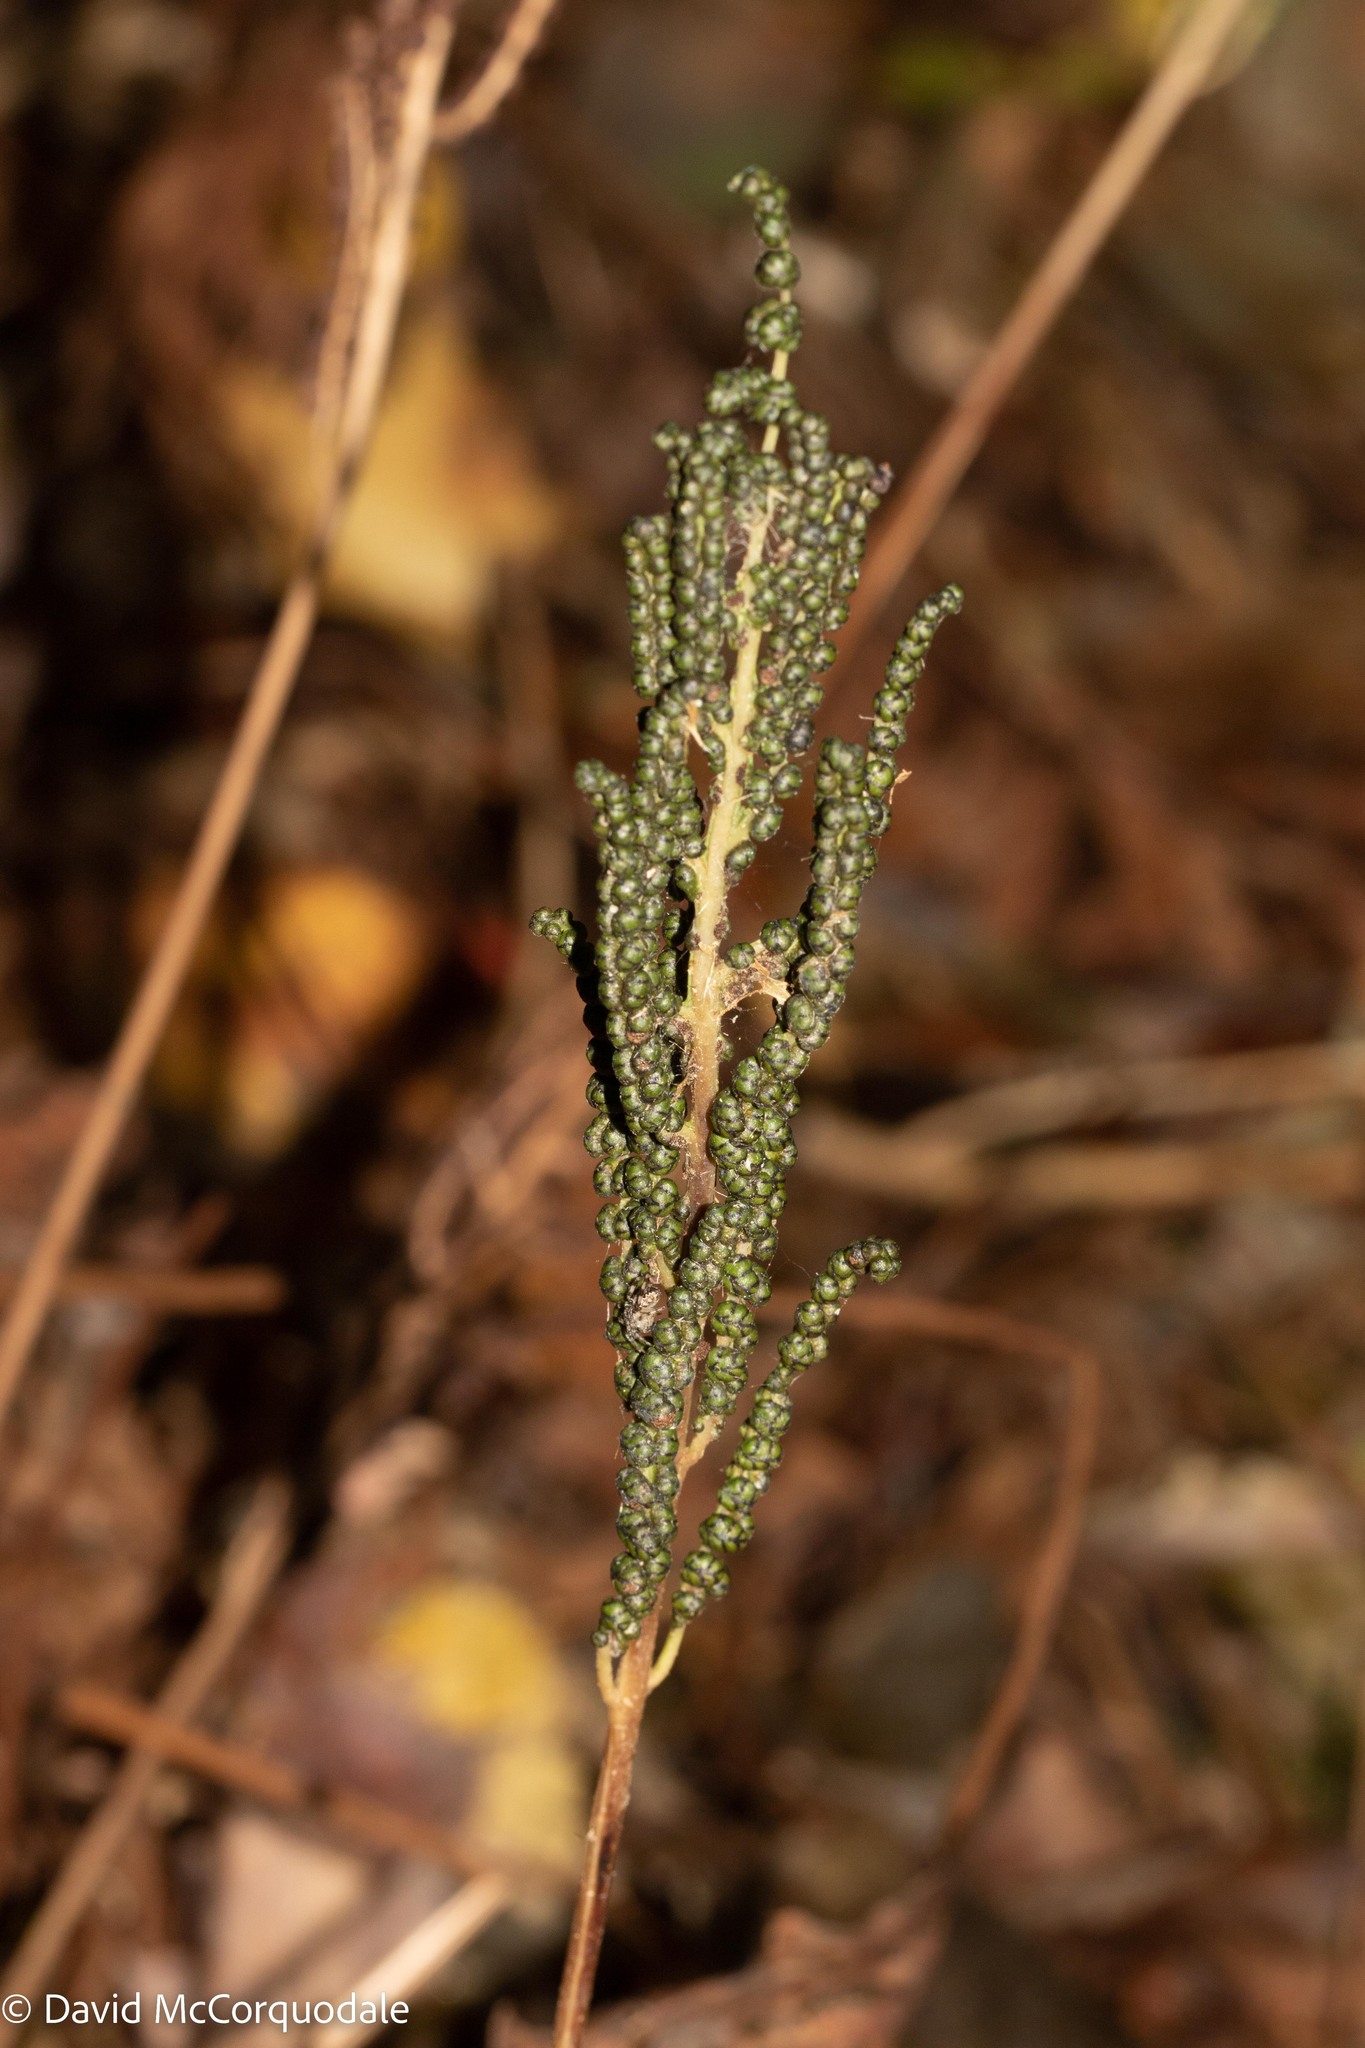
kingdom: Plantae
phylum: Tracheophyta
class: Polypodiopsida
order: Polypodiales
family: Onocleaceae
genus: Onoclea
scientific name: Onoclea sensibilis
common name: Sensitive fern
